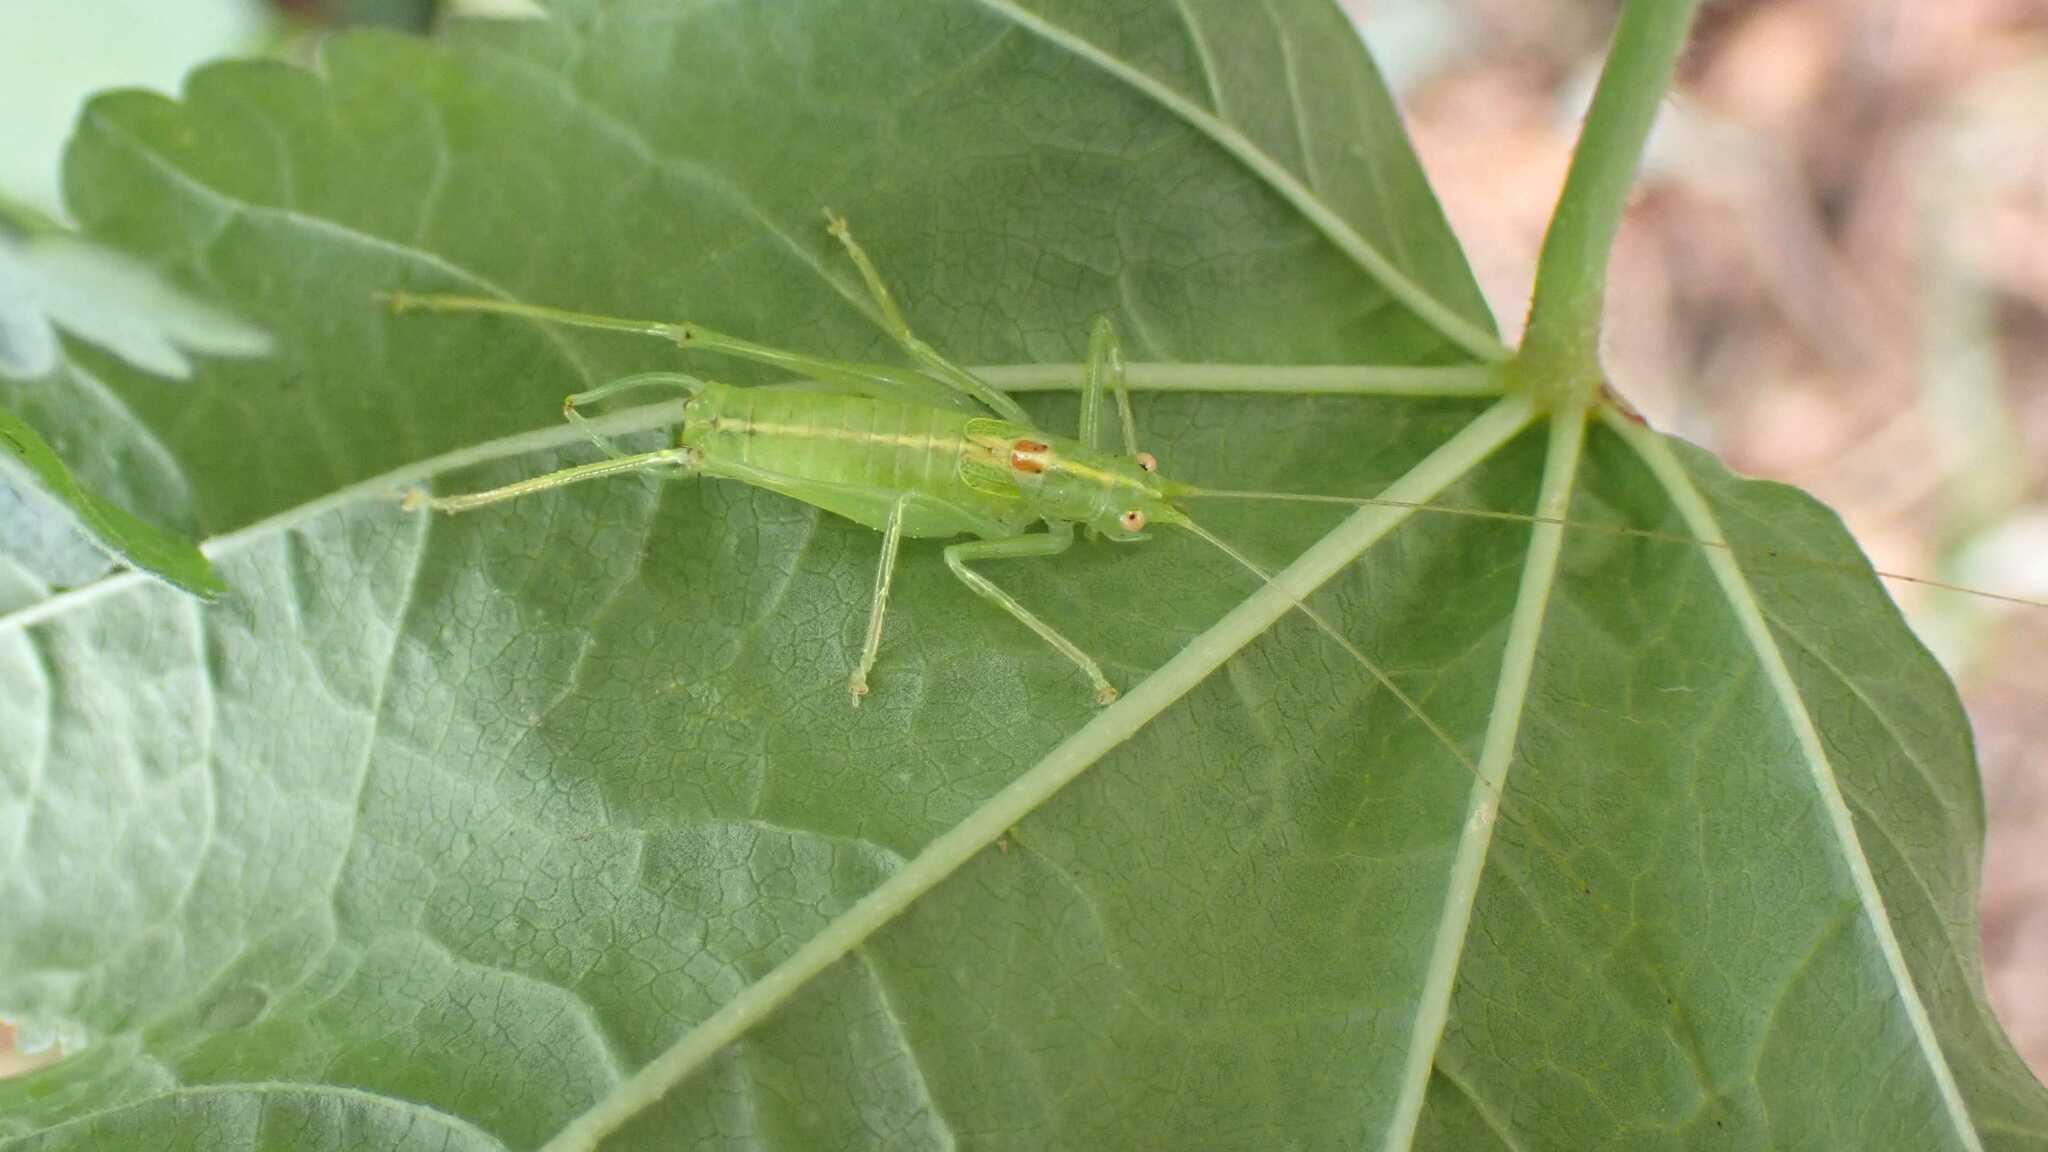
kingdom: Animalia
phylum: Arthropoda
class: Insecta
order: Orthoptera
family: Tettigoniidae
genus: Meconema
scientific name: Meconema meridionale
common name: Southern oak bush-cricket
